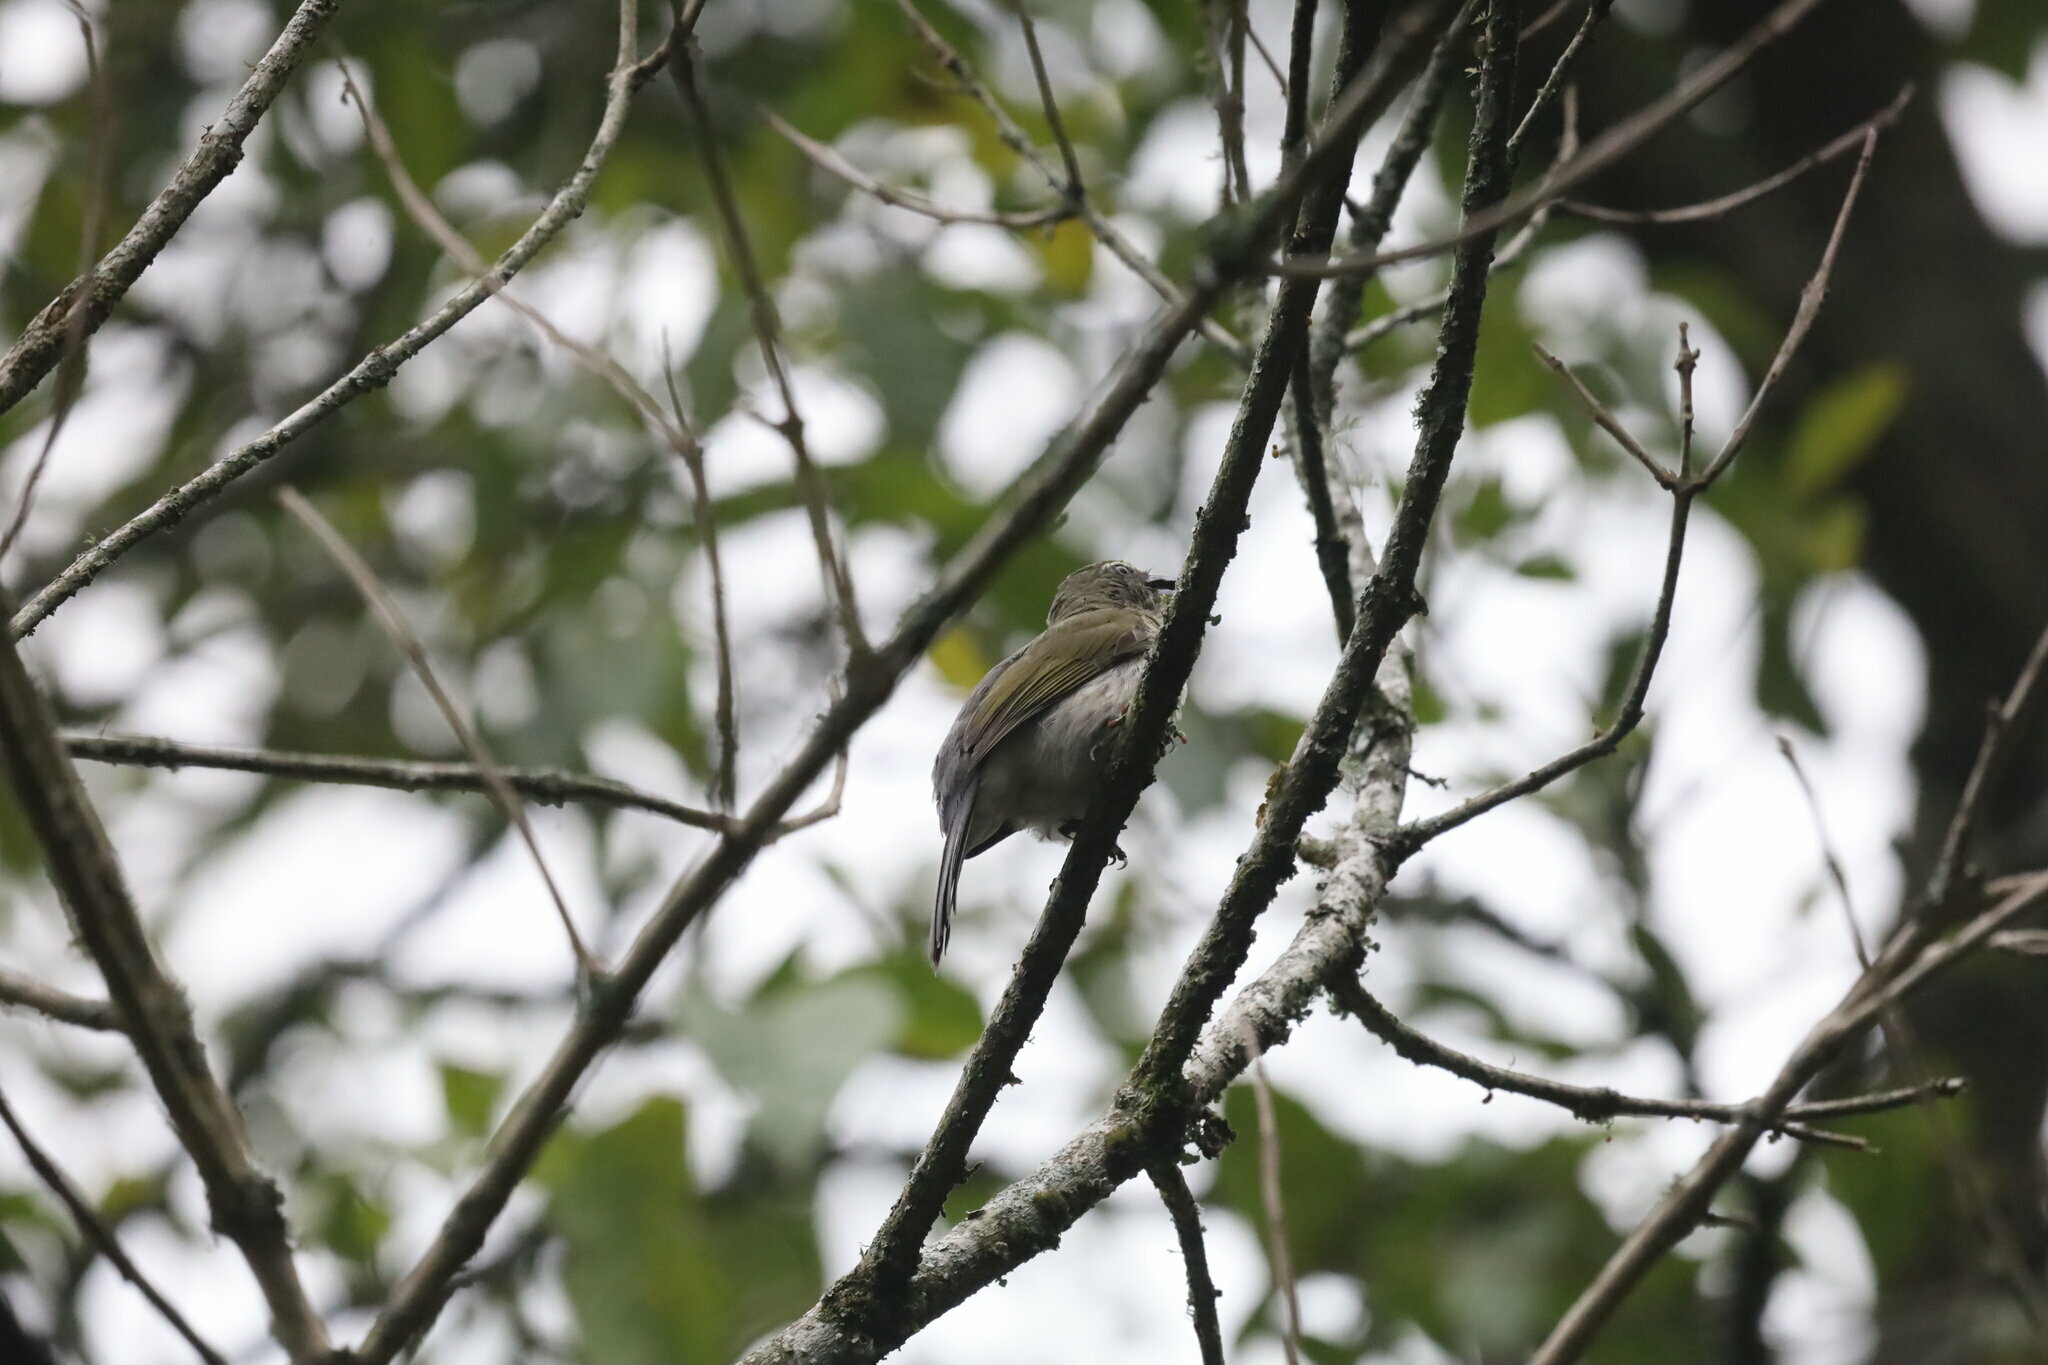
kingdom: Animalia
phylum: Chordata
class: Aves
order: Passeriformes
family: Thraupidae
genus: Saltator
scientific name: Saltator striatipectus
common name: Streaked saltator
